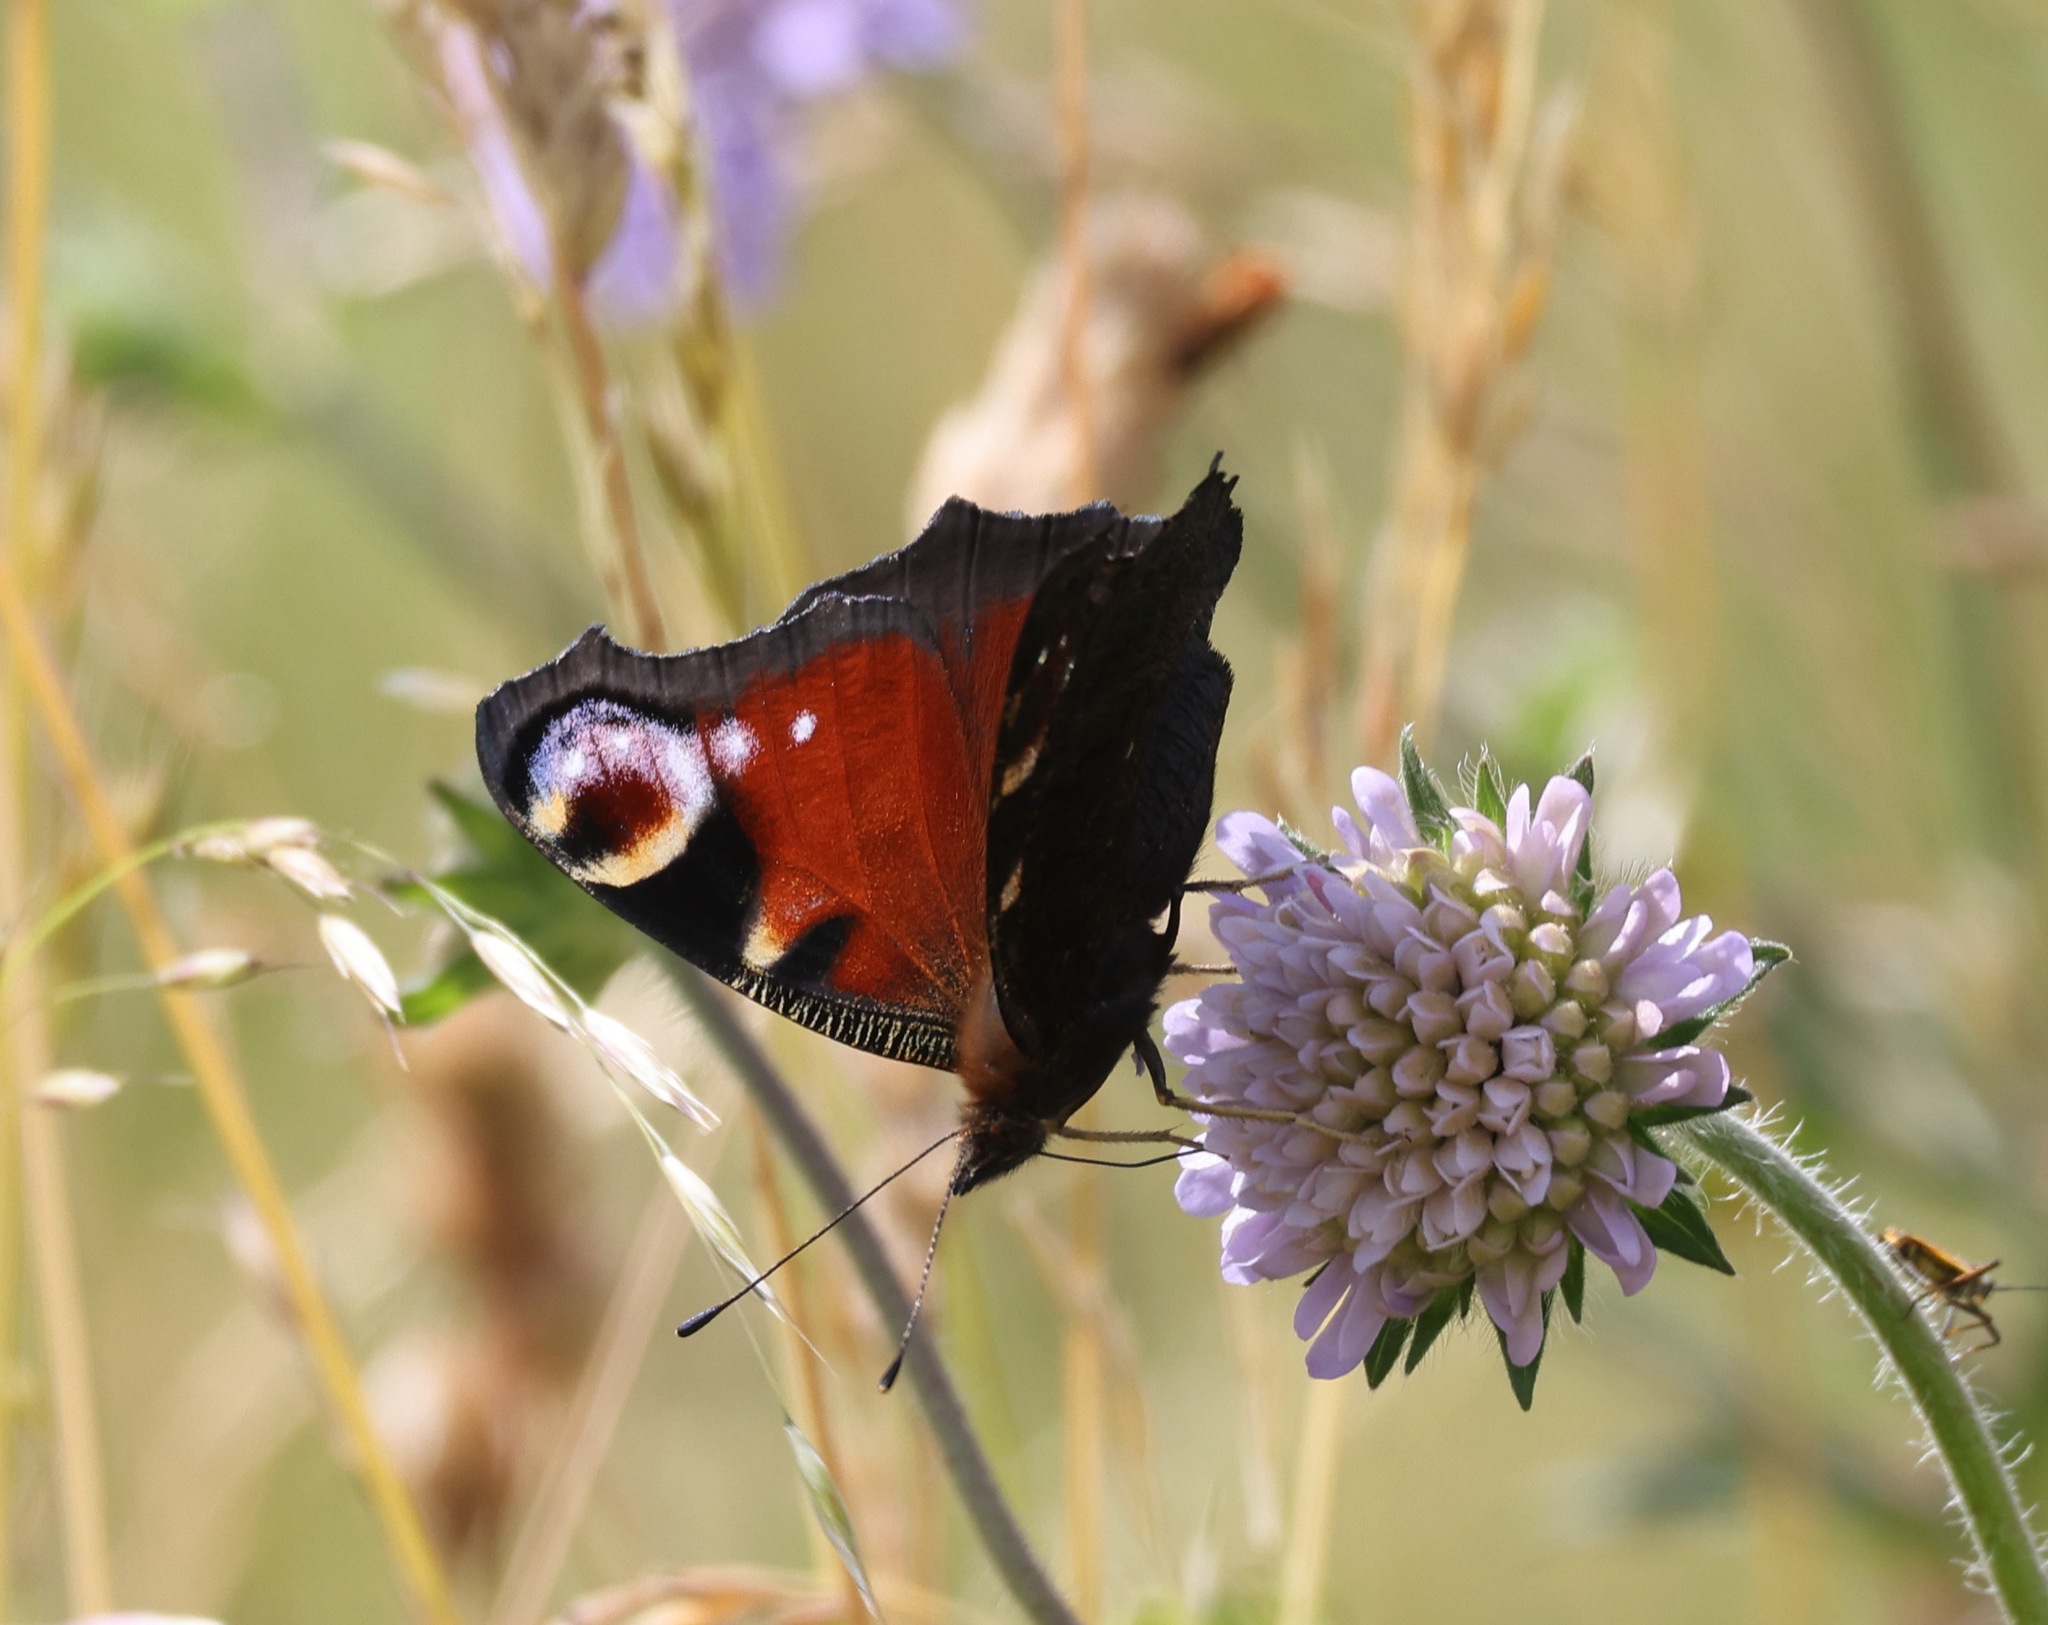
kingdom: Animalia
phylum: Arthropoda
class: Insecta
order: Lepidoptera
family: Nymphalidae
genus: Aglais
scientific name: Aglais io
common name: Peacock
